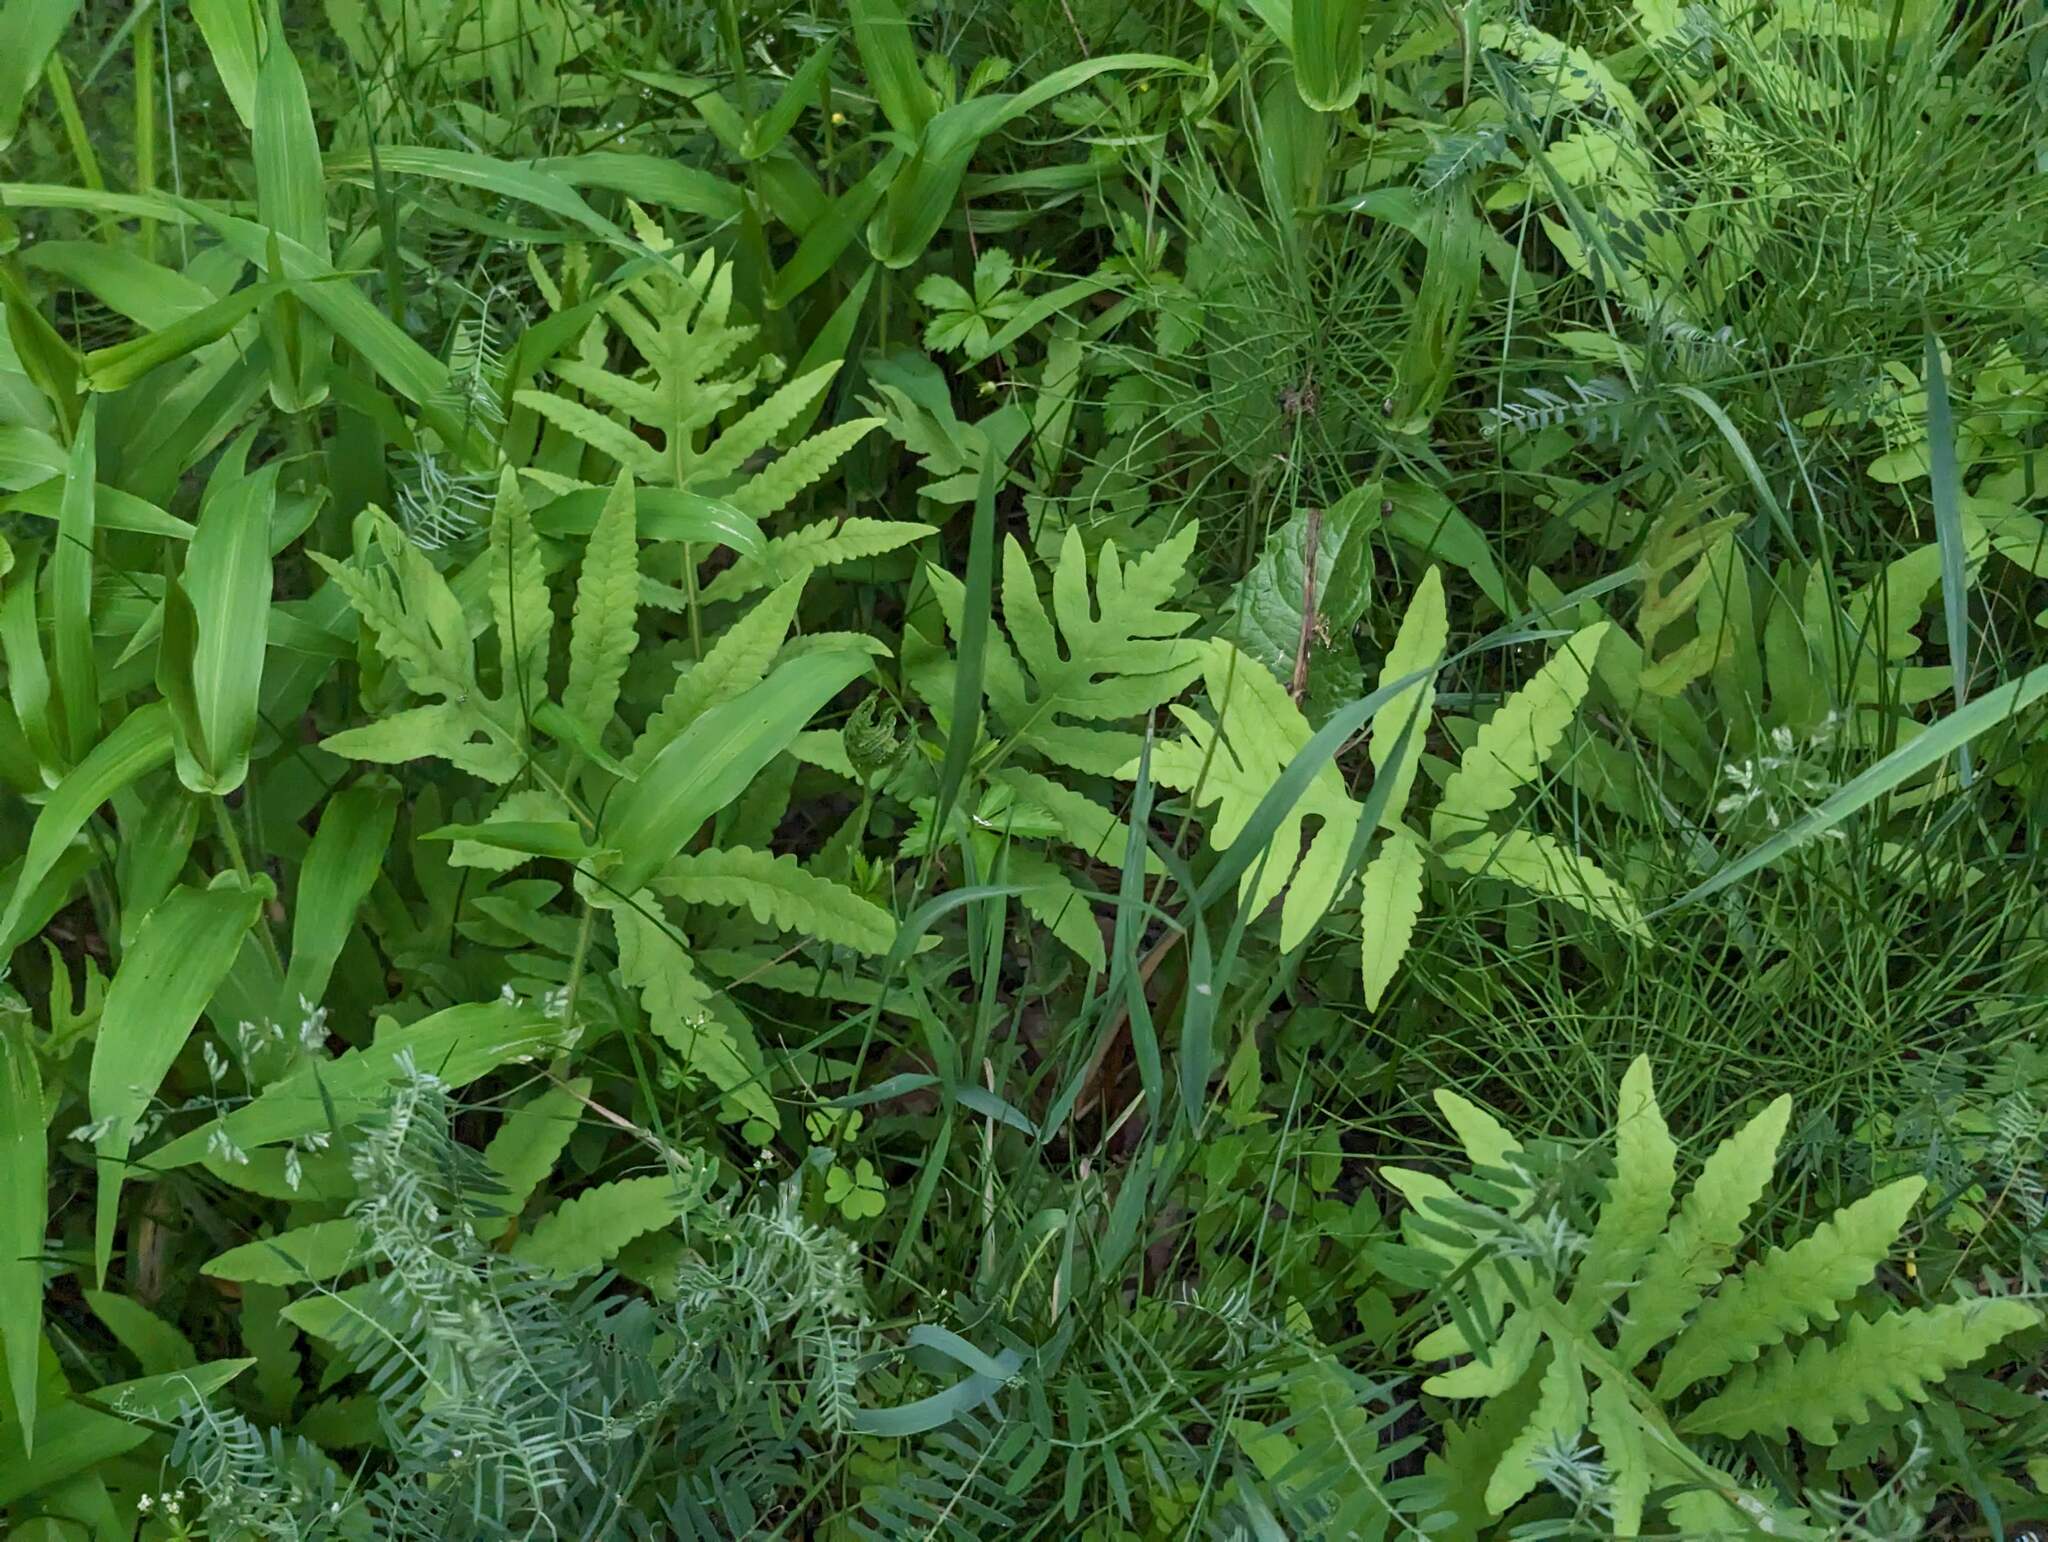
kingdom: Plantae
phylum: Tracheophyta
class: Polypodiopsida
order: Polypodiales
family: Onocleaceae
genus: Onoclea
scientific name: Onoclea sensibilis
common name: Sensitive fern
